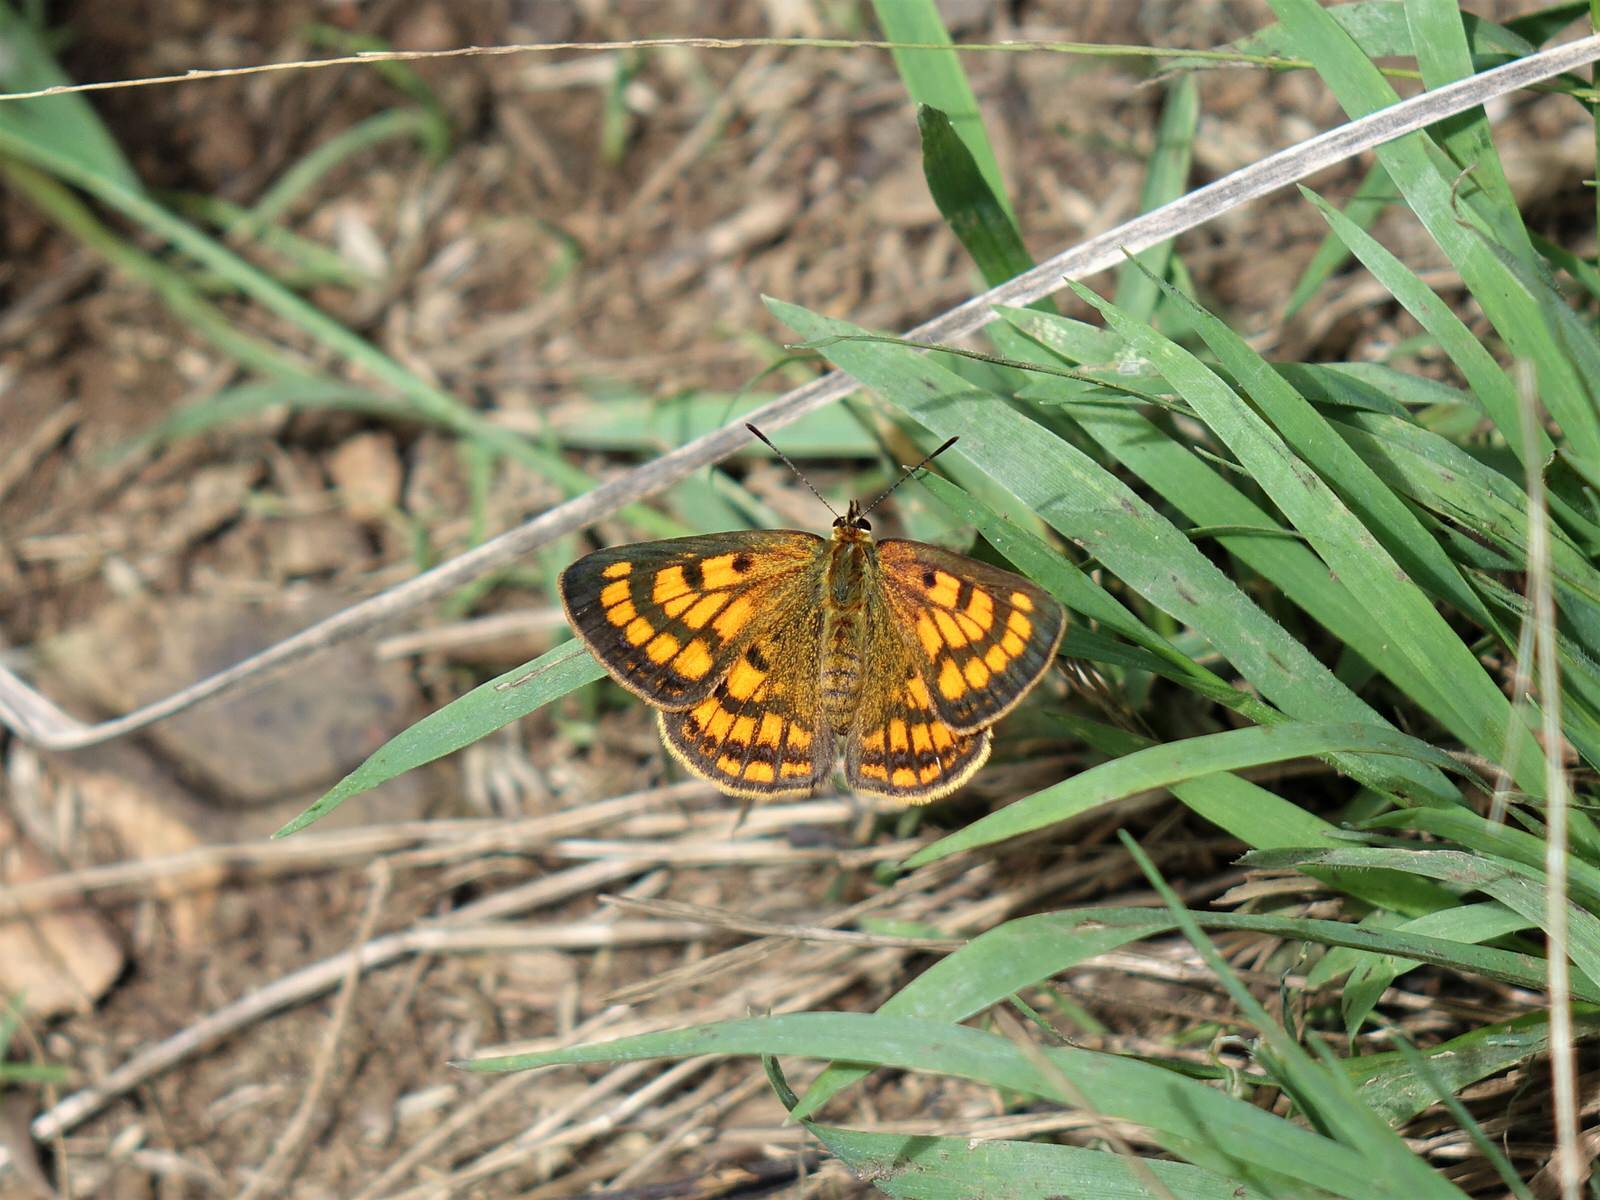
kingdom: Animalia
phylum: Arthropoda
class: Insecta
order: Lepidoptera
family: Lycaenidae
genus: Lycaena
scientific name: Lycaena salustius
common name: North island coastal copper
